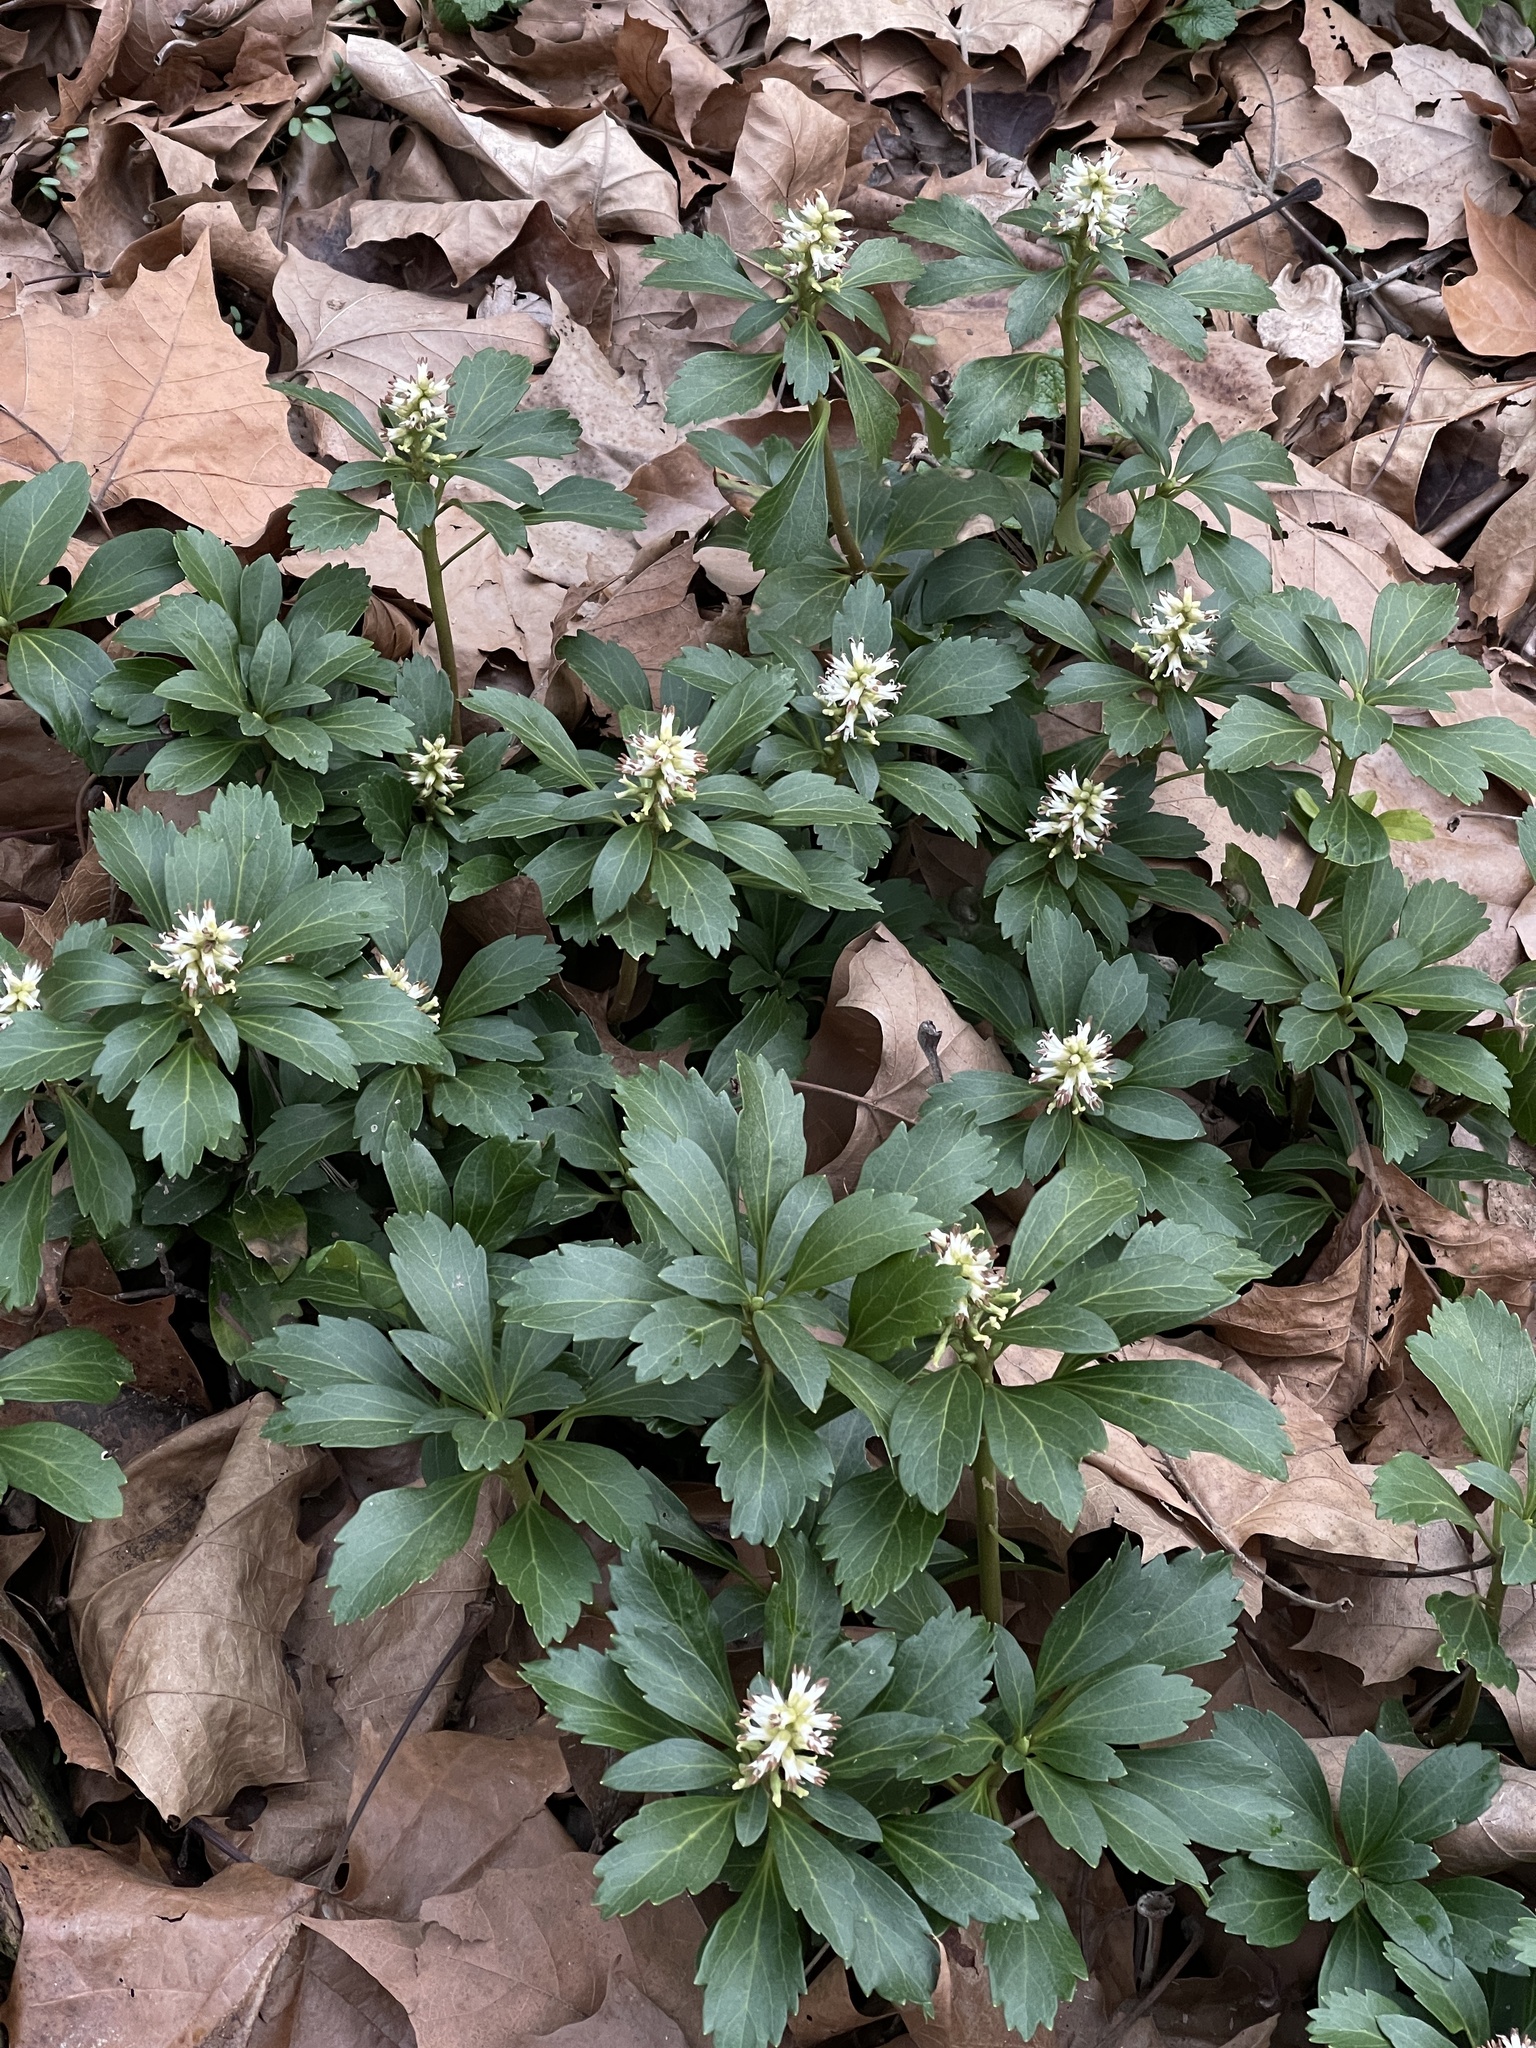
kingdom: Plantae
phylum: Tracheophyta
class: Magnoliopsida
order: Buxales
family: Buxaceae
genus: Pachysandra
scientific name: Pachysandra terminalis
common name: Japanese pachysandra
